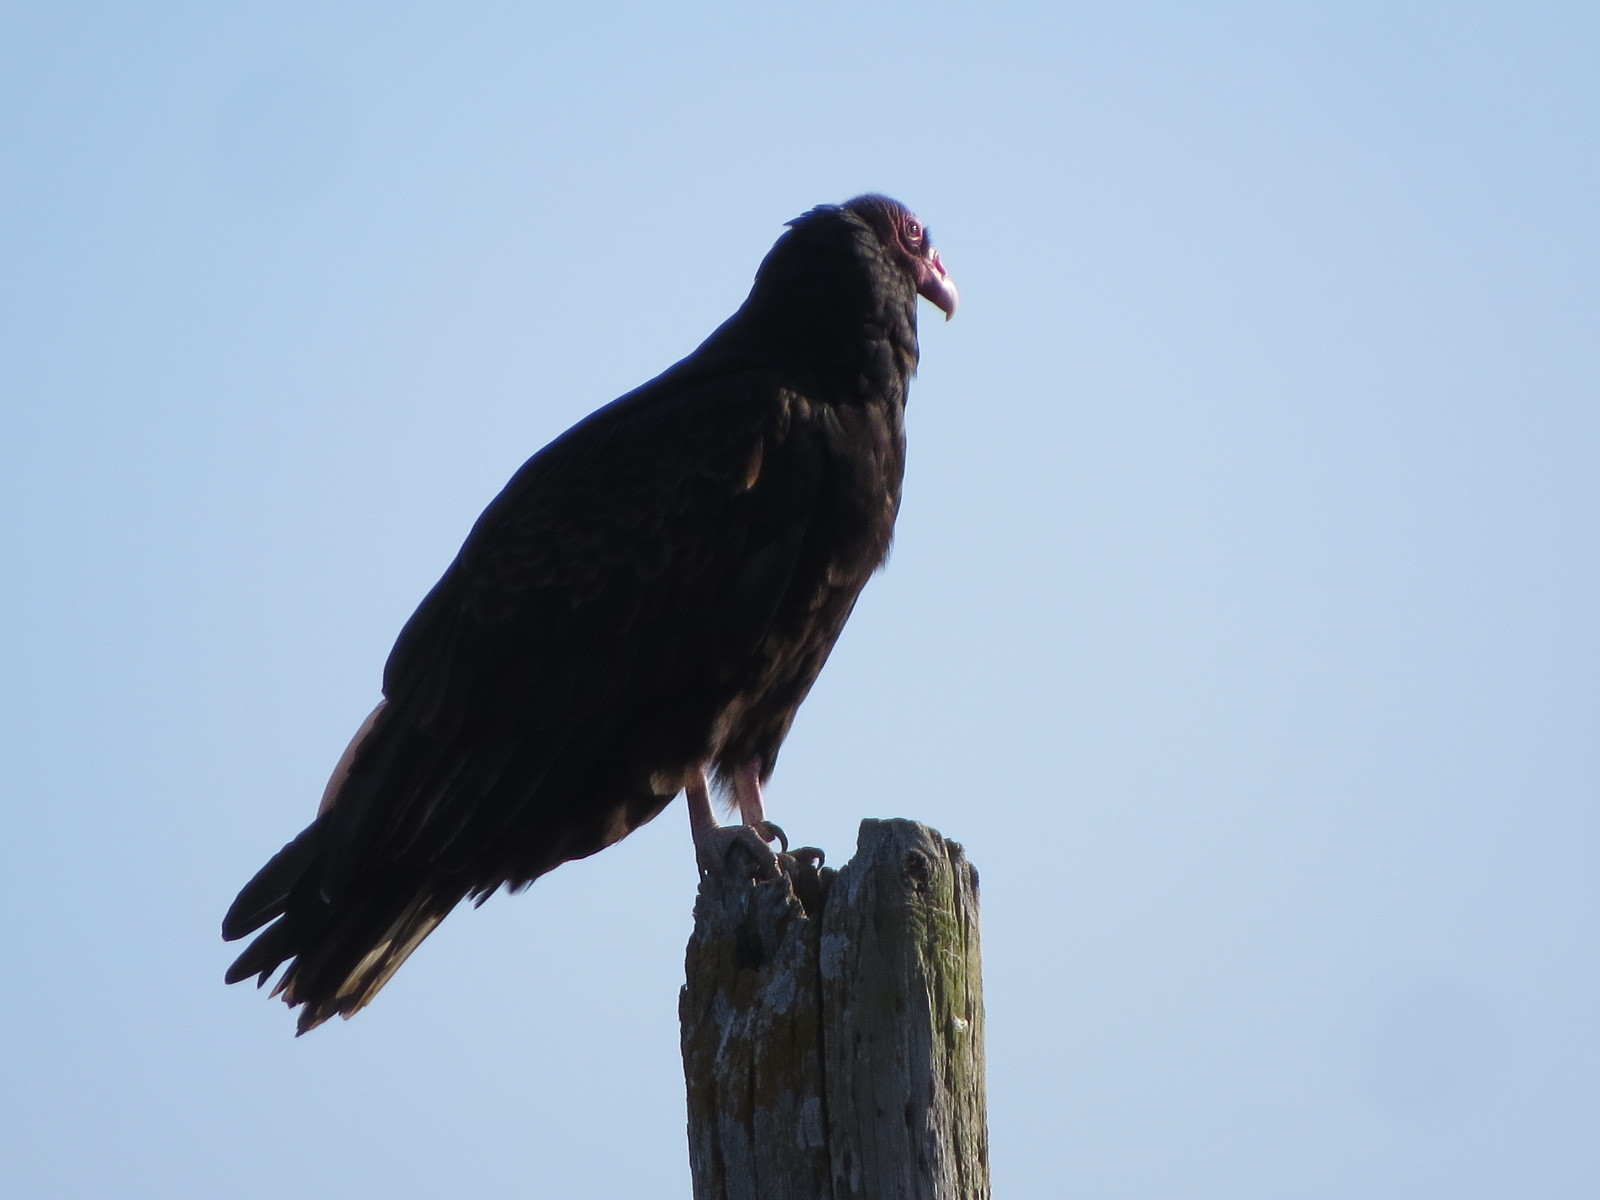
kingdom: Animalia
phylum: Chordata
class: Aves
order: Accipitriformes
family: Cathartidae
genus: Cathartes
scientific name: Cathartes aura
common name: Turkey vulture
